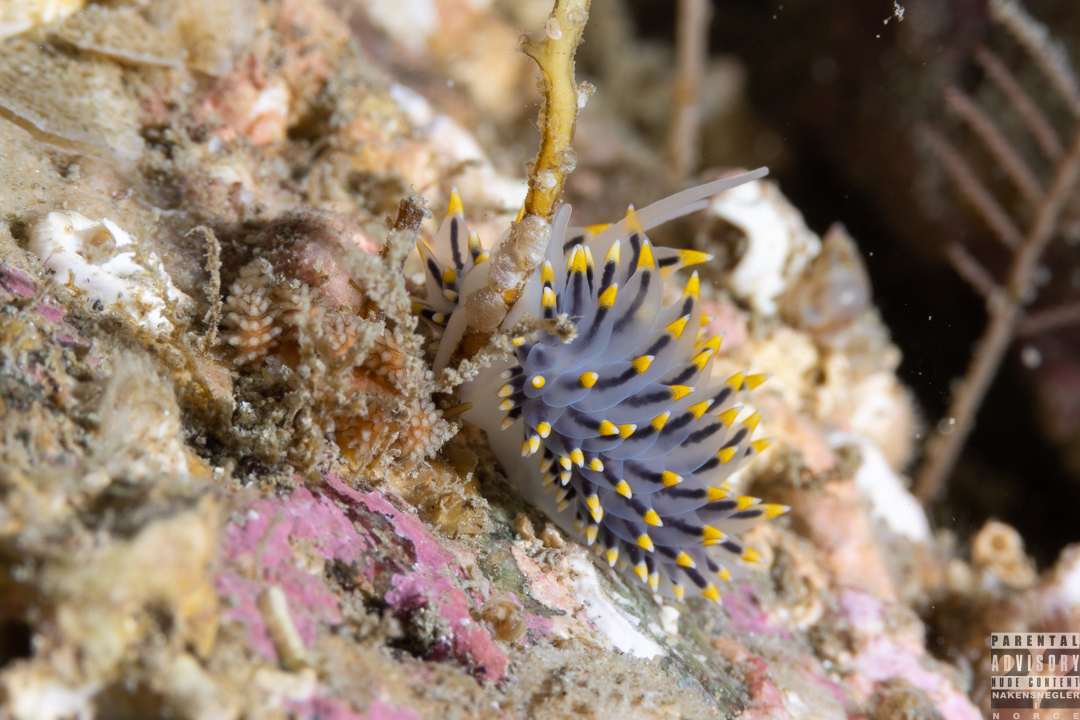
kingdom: Animalia
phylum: Mollusca
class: Gastropoda
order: Nudibranchia
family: Eubranchidae
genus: Eubranchus
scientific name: Eubranchus tricolor
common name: Painted balloon aeolis
